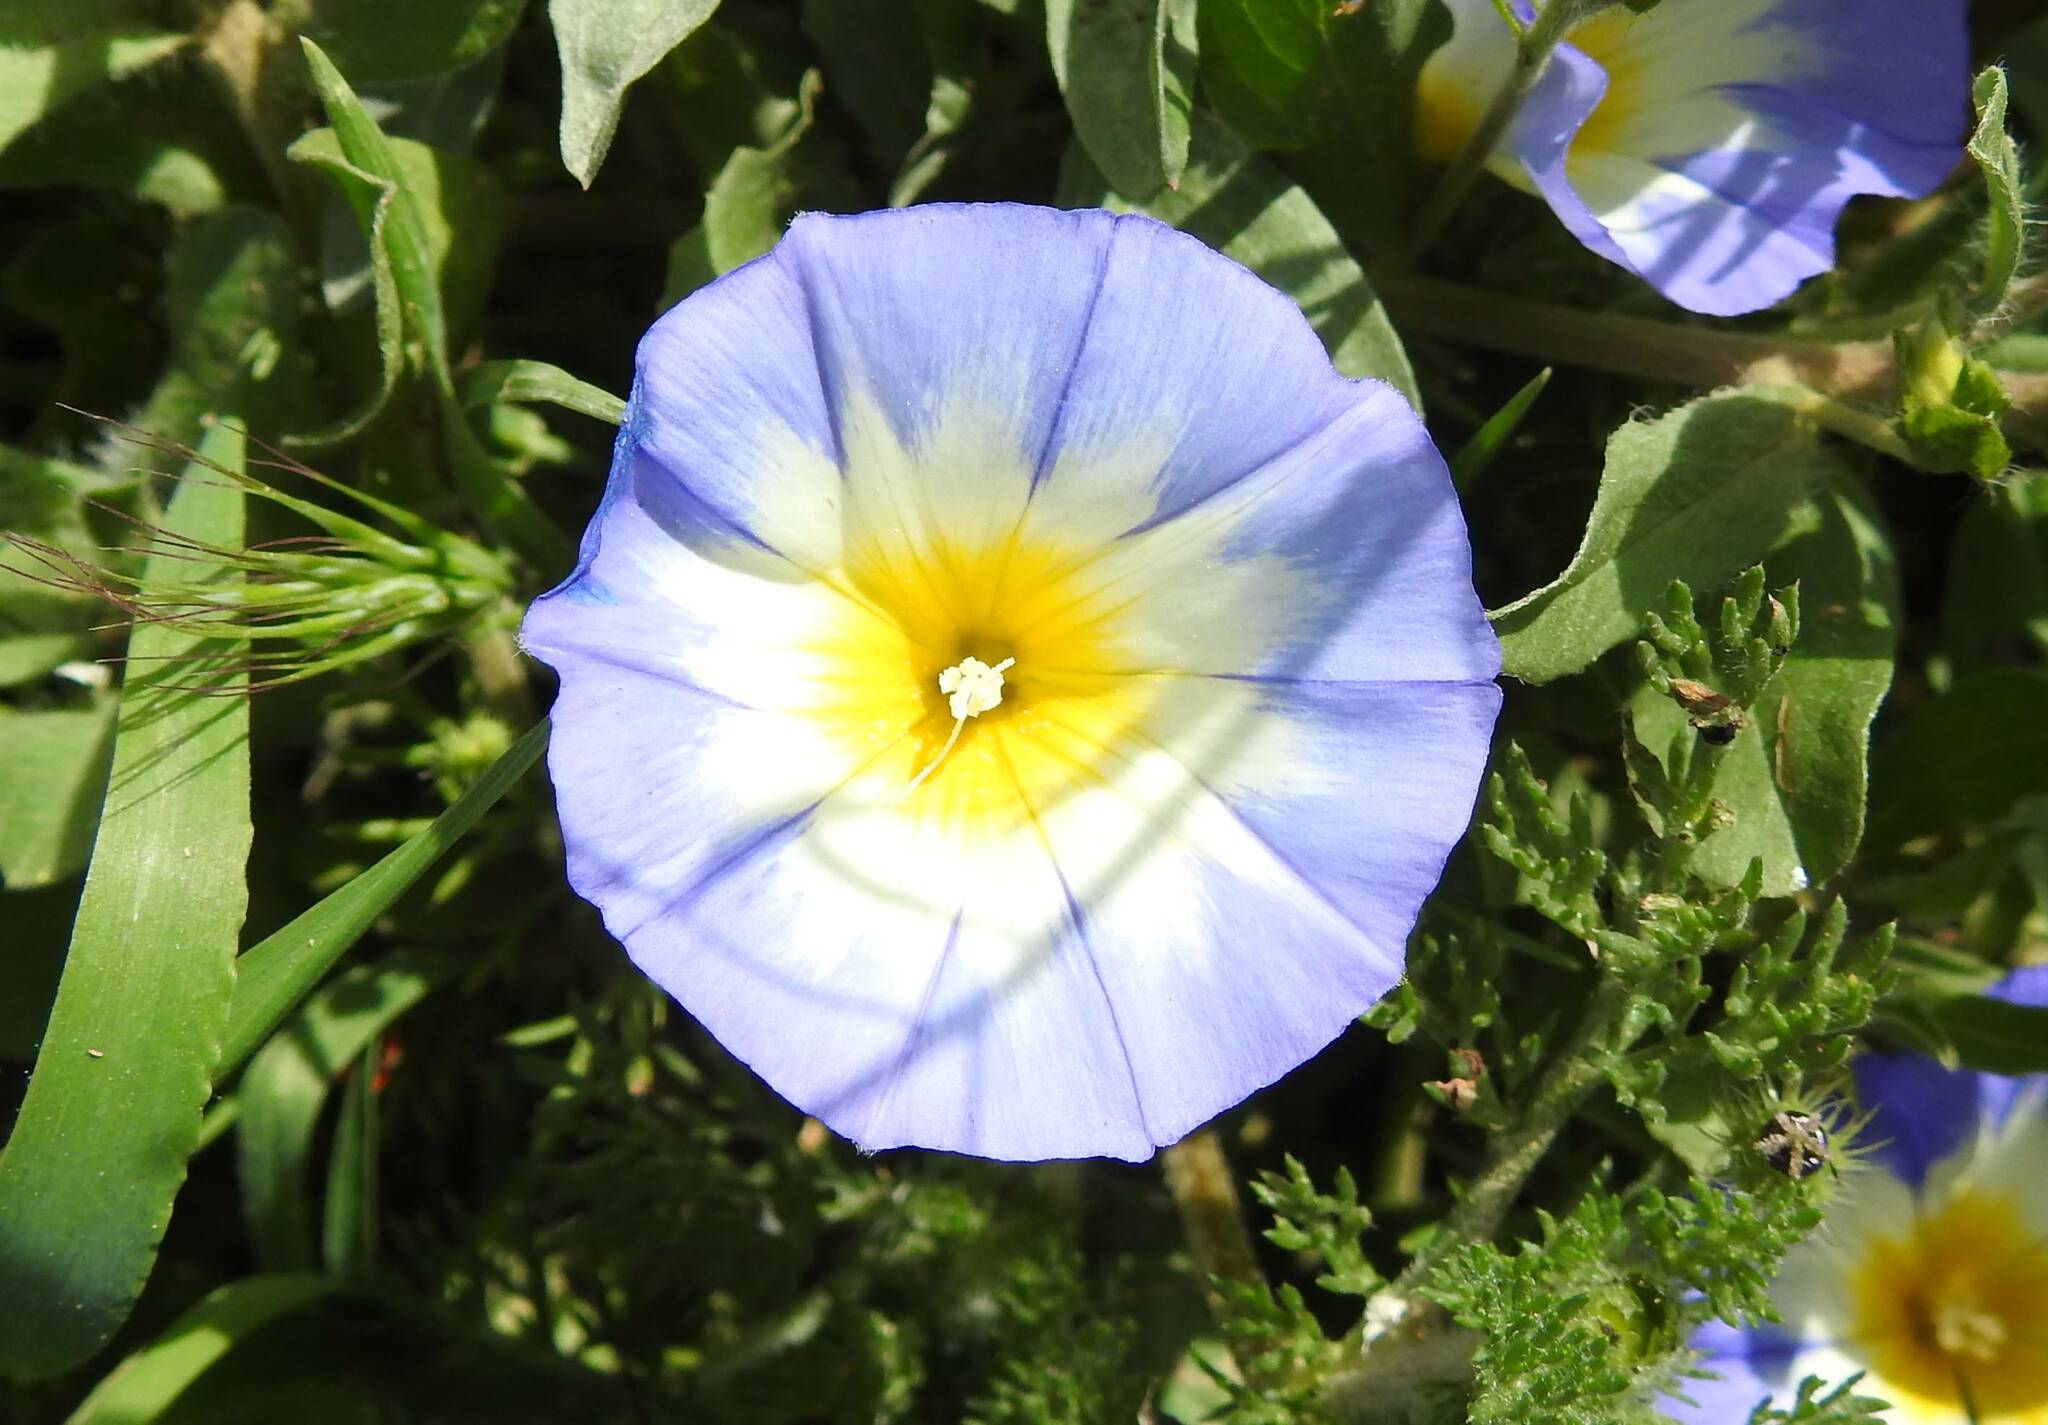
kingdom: Plantae
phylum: Tracheophyta
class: Magnoliopsida
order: Solanales
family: Convolvulaceae
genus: Convolvulus
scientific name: Convolvulus tricolor
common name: Dwarf morning-glory
